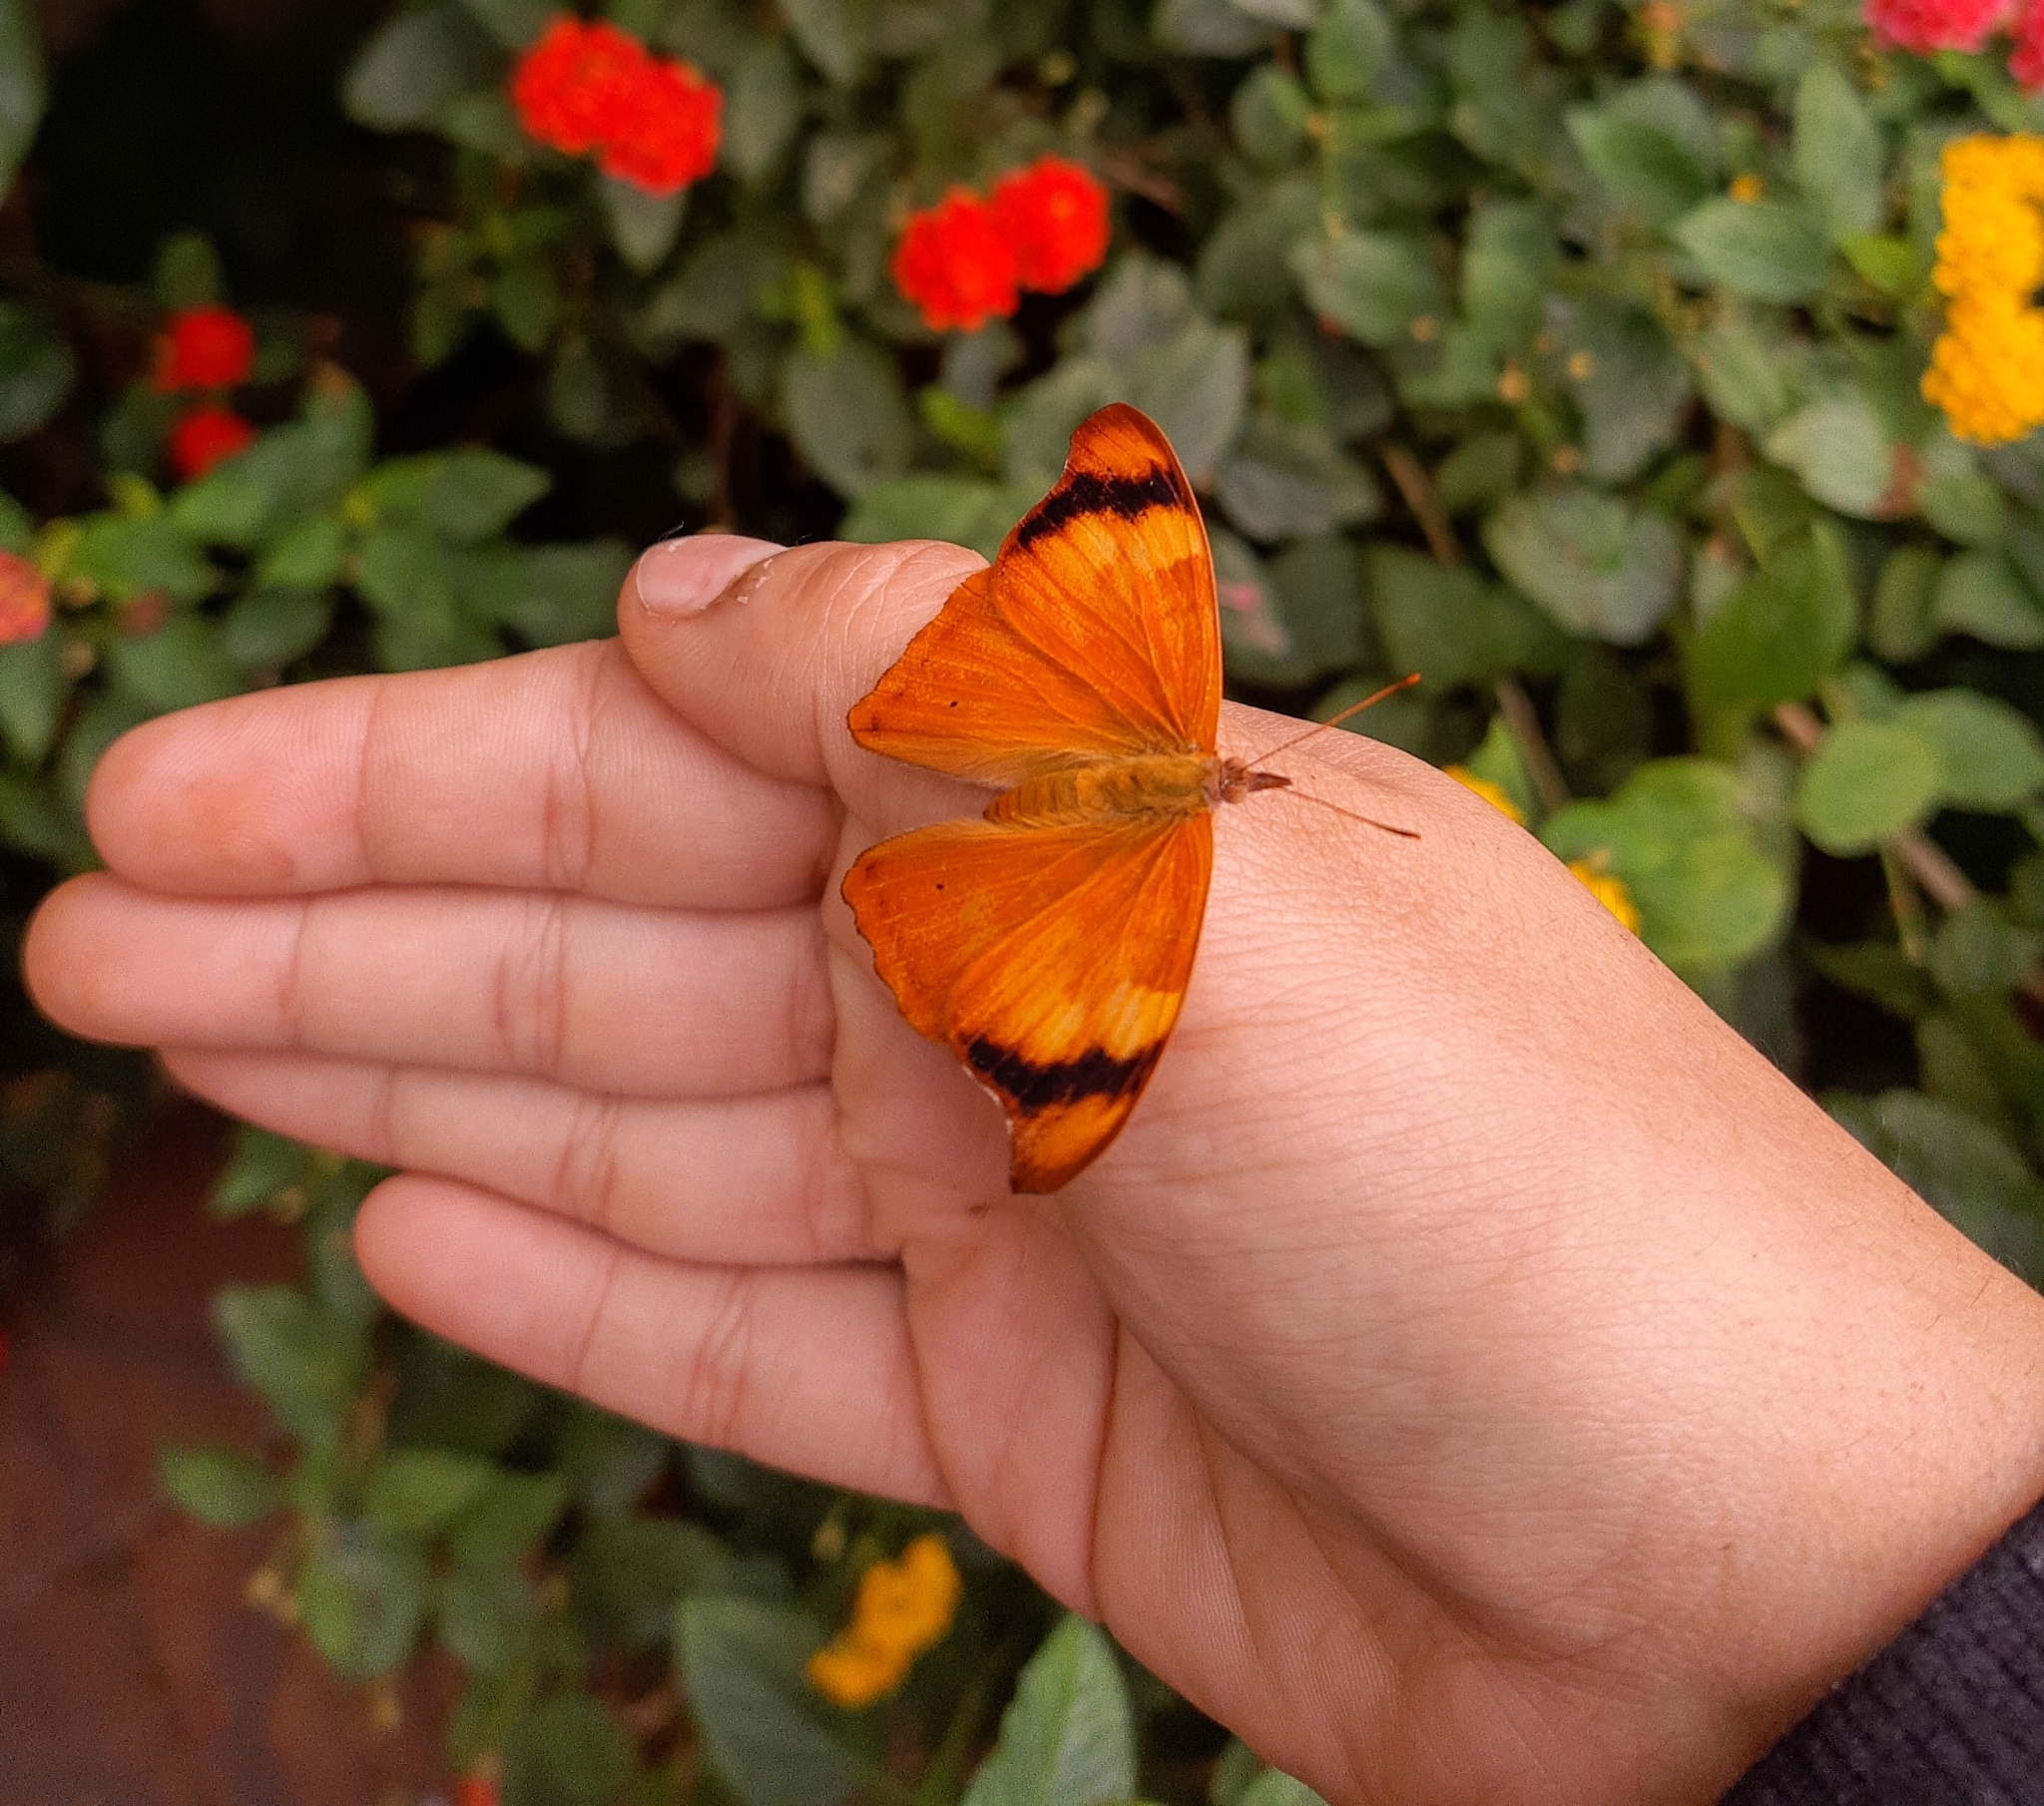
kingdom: Animalia
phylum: Arthropoda
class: Insecta
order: Lepidoptera
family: Nymphalidae
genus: Temenis
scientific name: Temenis laothoe
